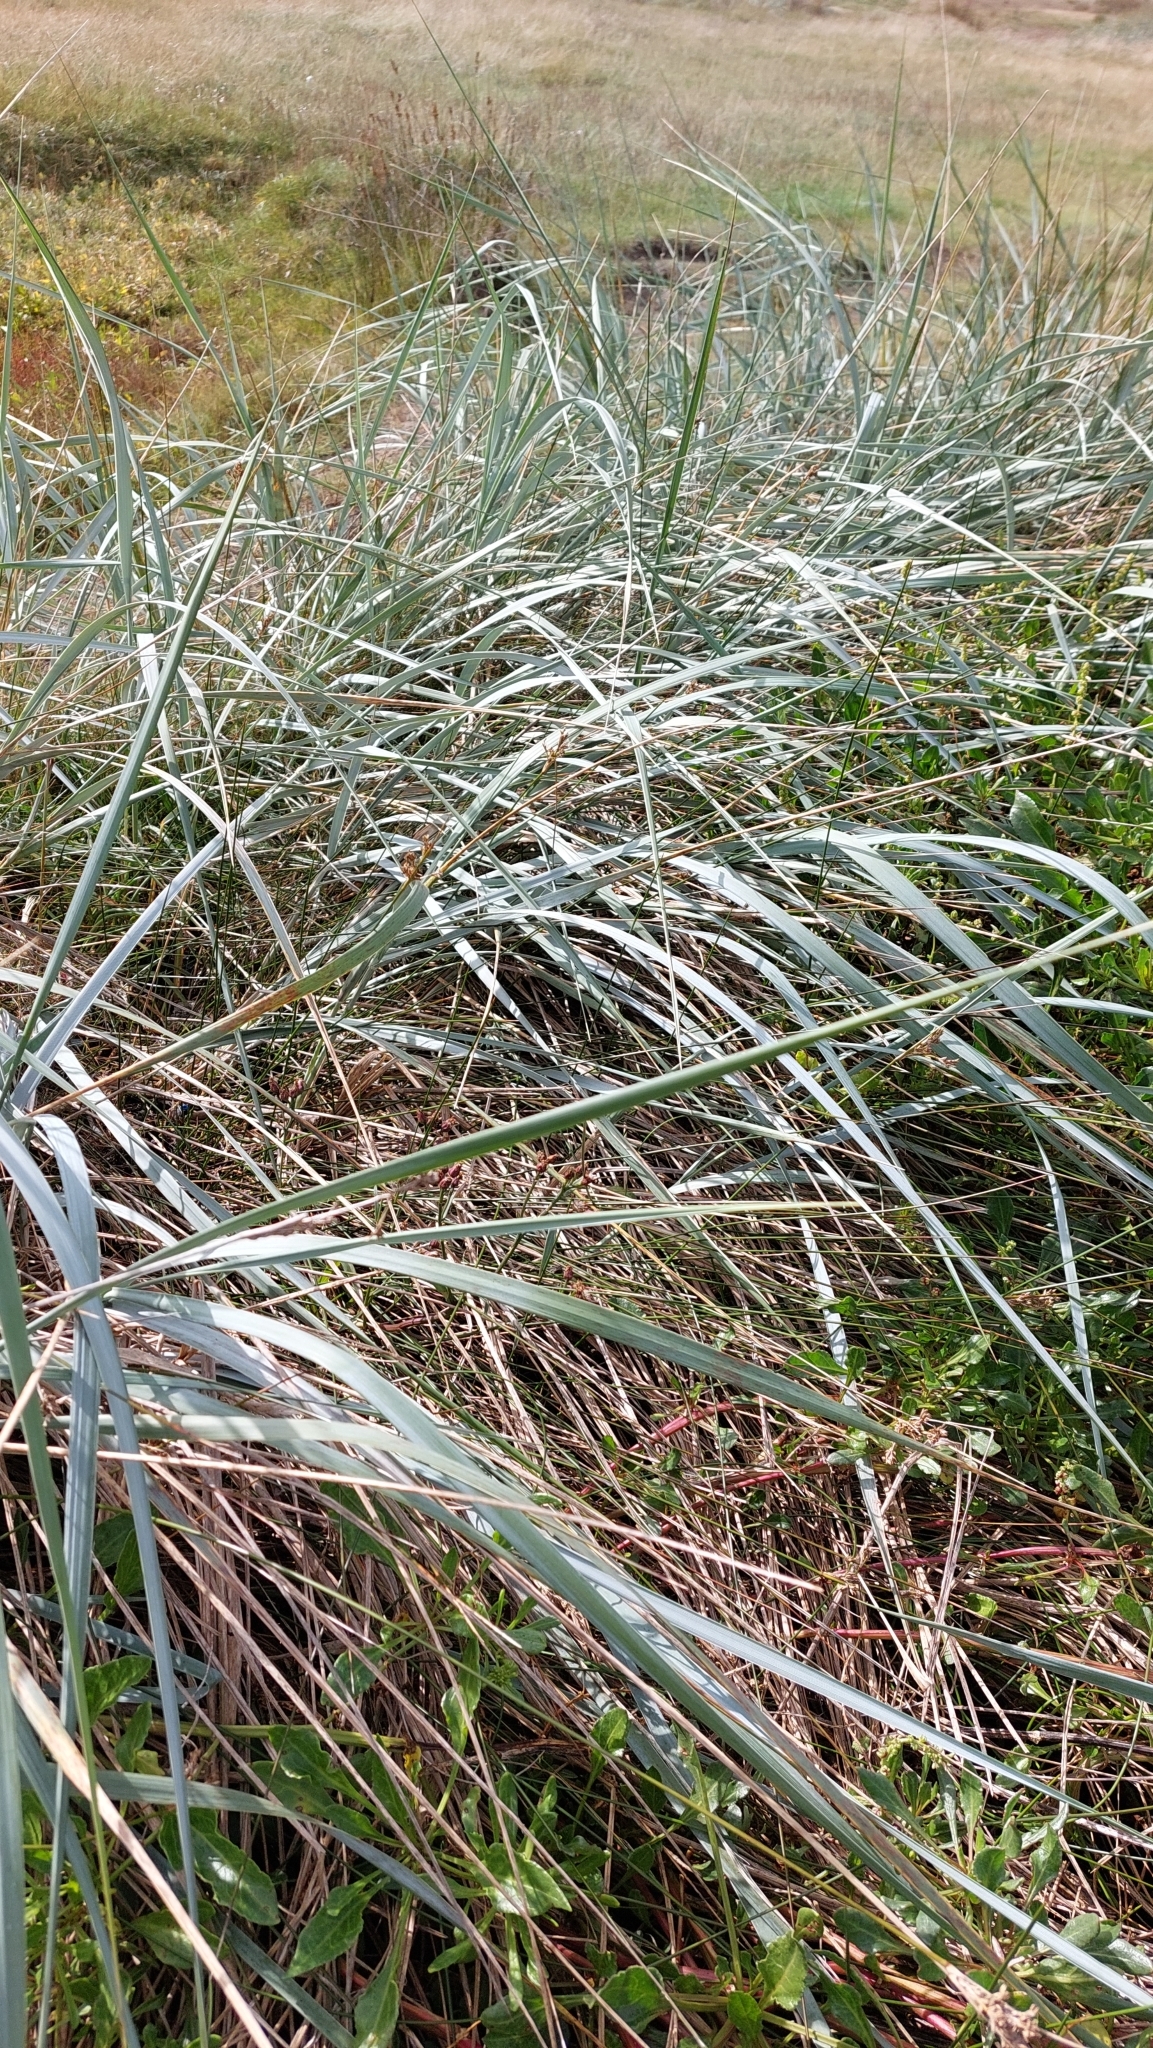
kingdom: Plantae
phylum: Tracheophyta
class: Liliopsida
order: Poales
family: Poaceae
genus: Leymus
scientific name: Leymus arenarius
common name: Lyme-grass
